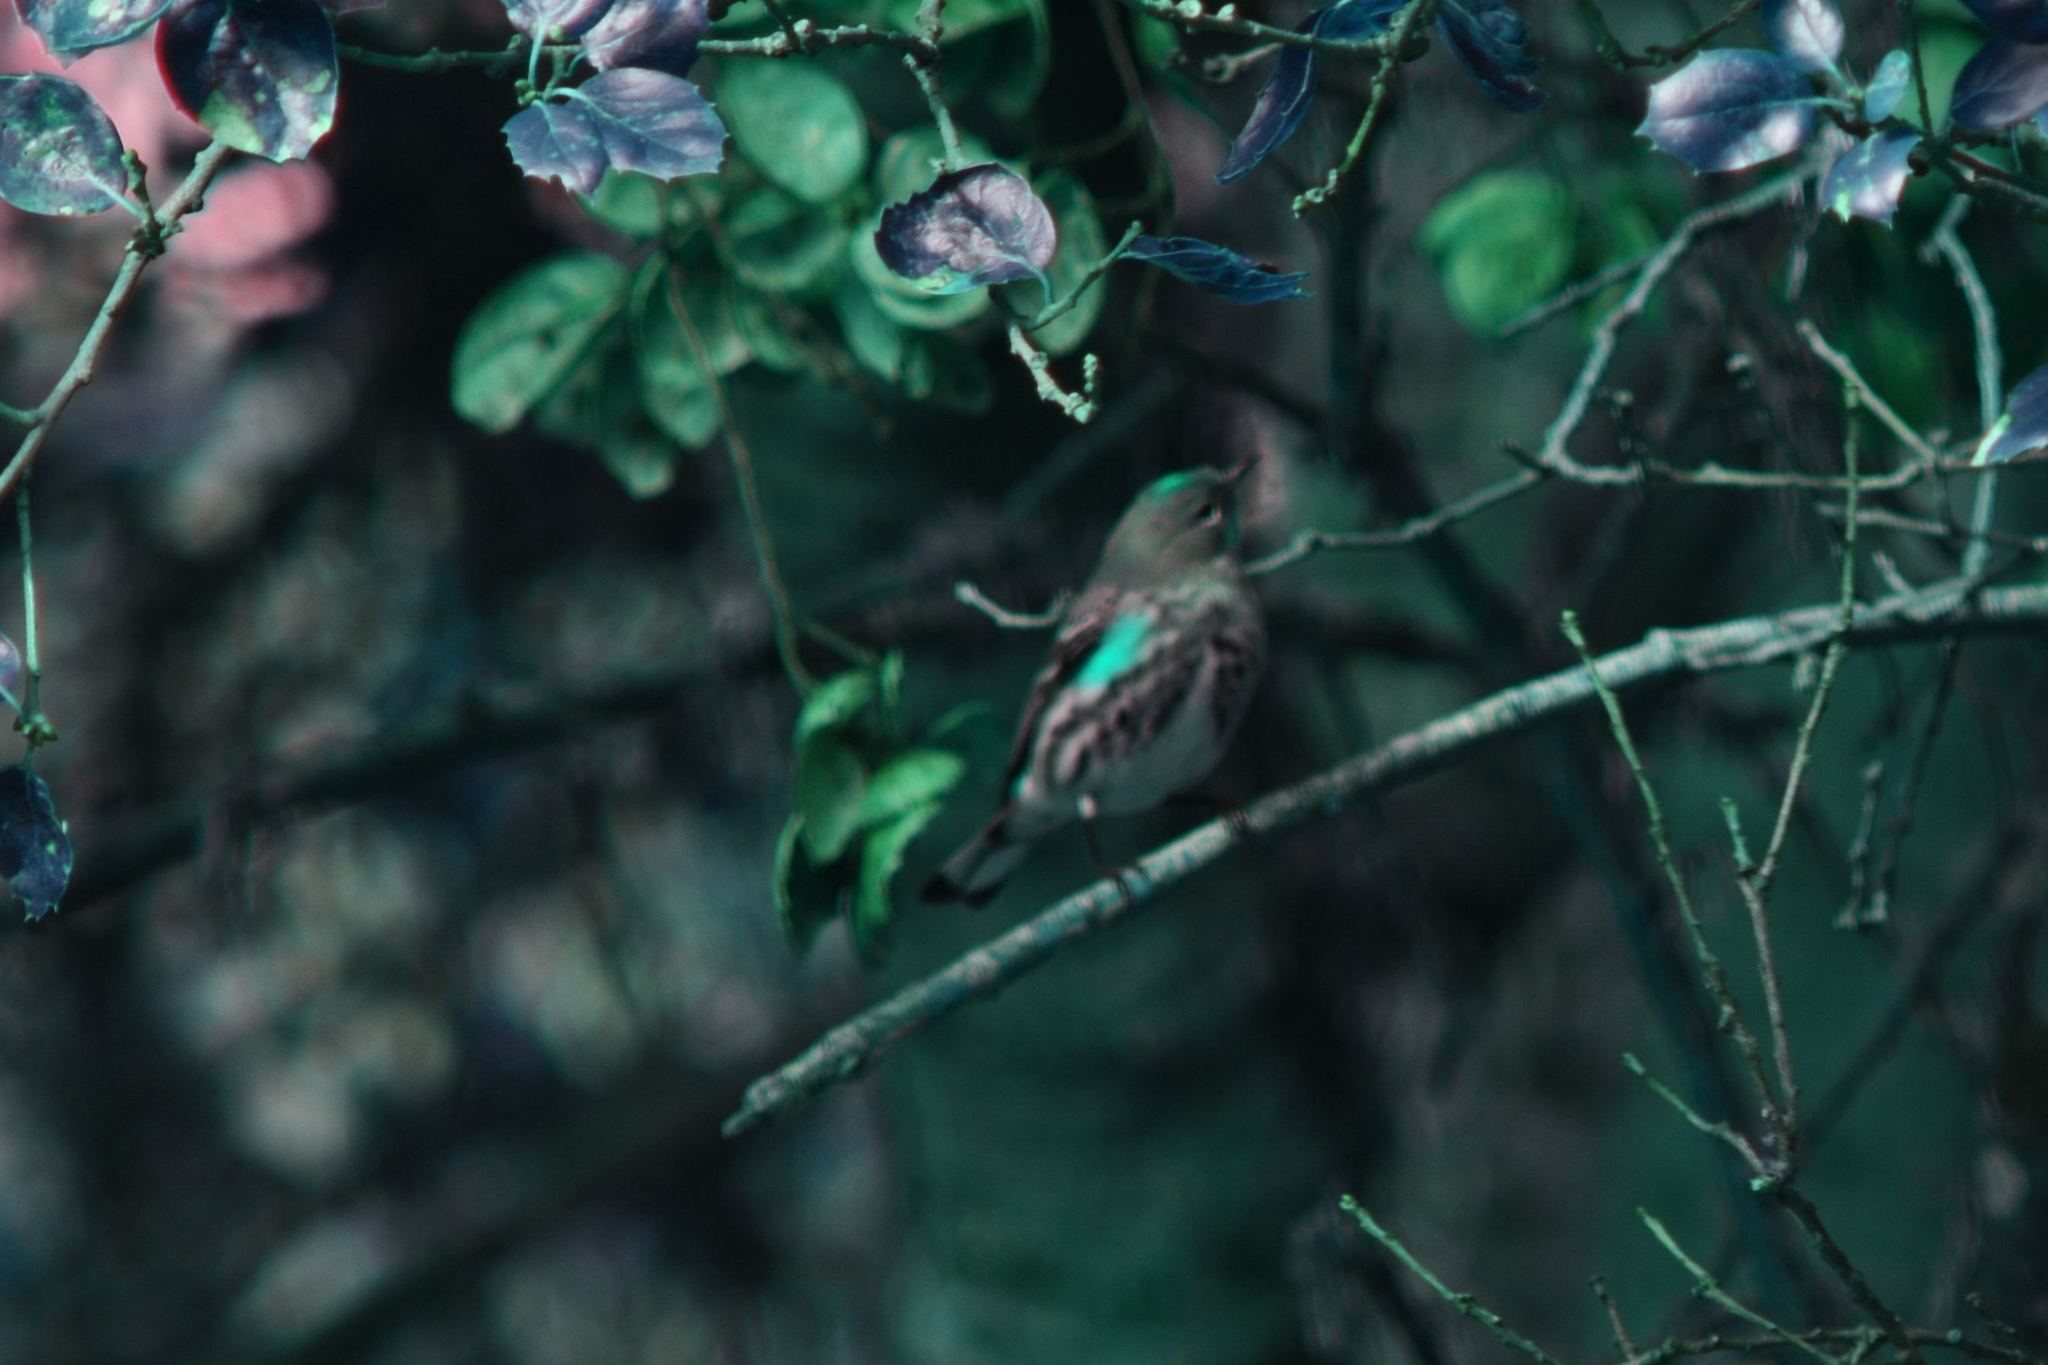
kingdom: Animalia
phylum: Chordata
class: Aves
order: Passeriformes
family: Parulidae
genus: Setophaga
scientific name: Setophaga coronata
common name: Myrtle warbler
